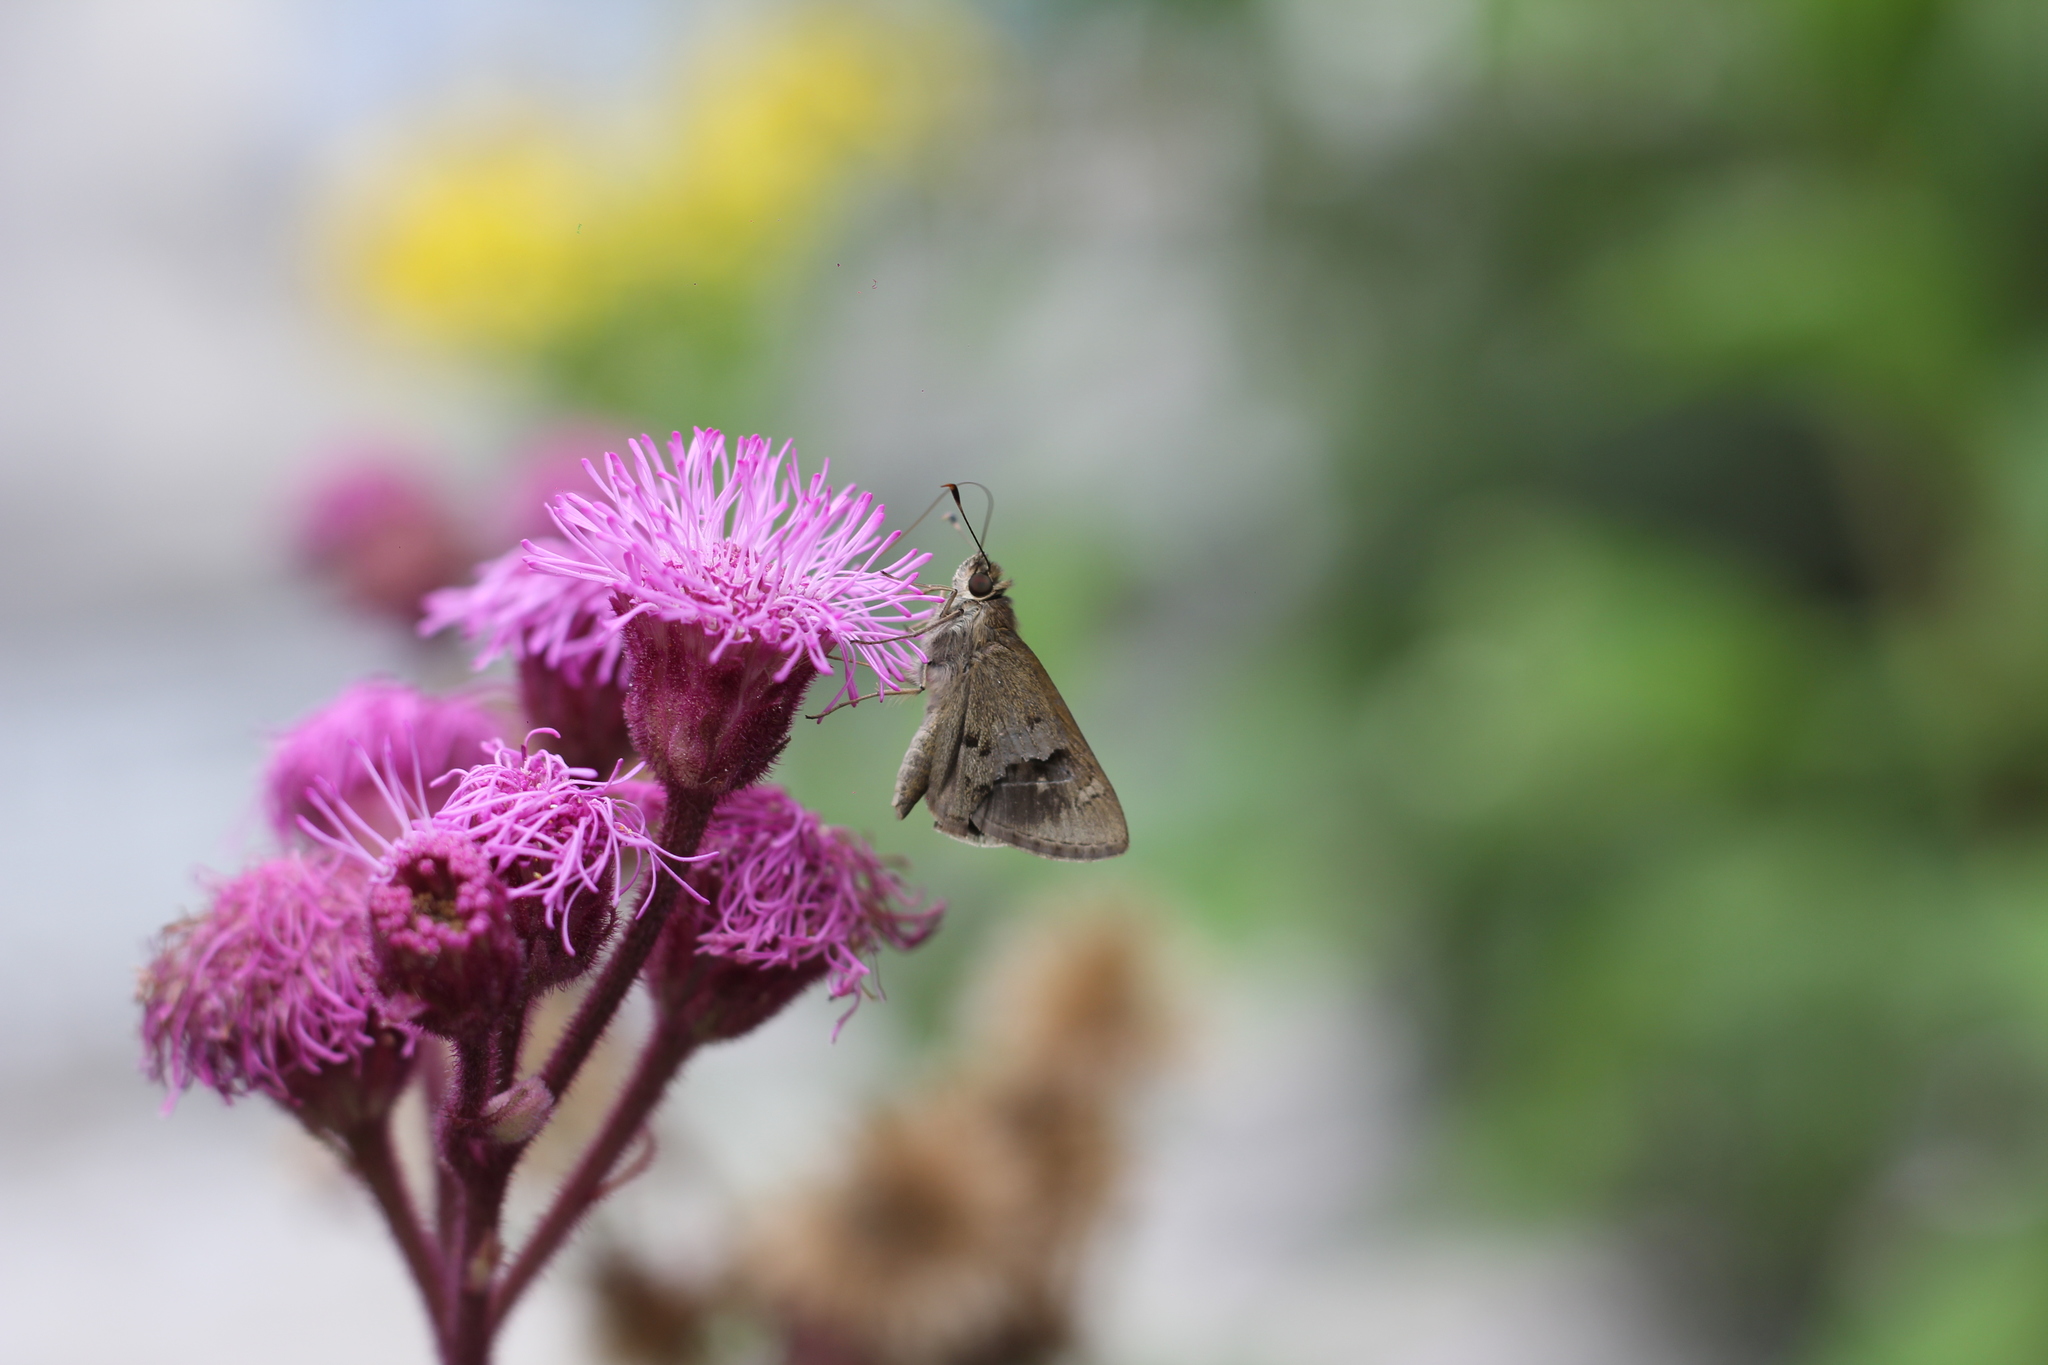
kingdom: Animalia
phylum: Arthropoda
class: Insecta
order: Lepidoptera
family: Hesperiidae
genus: Cymaenes
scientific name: Cymaenes gisca
